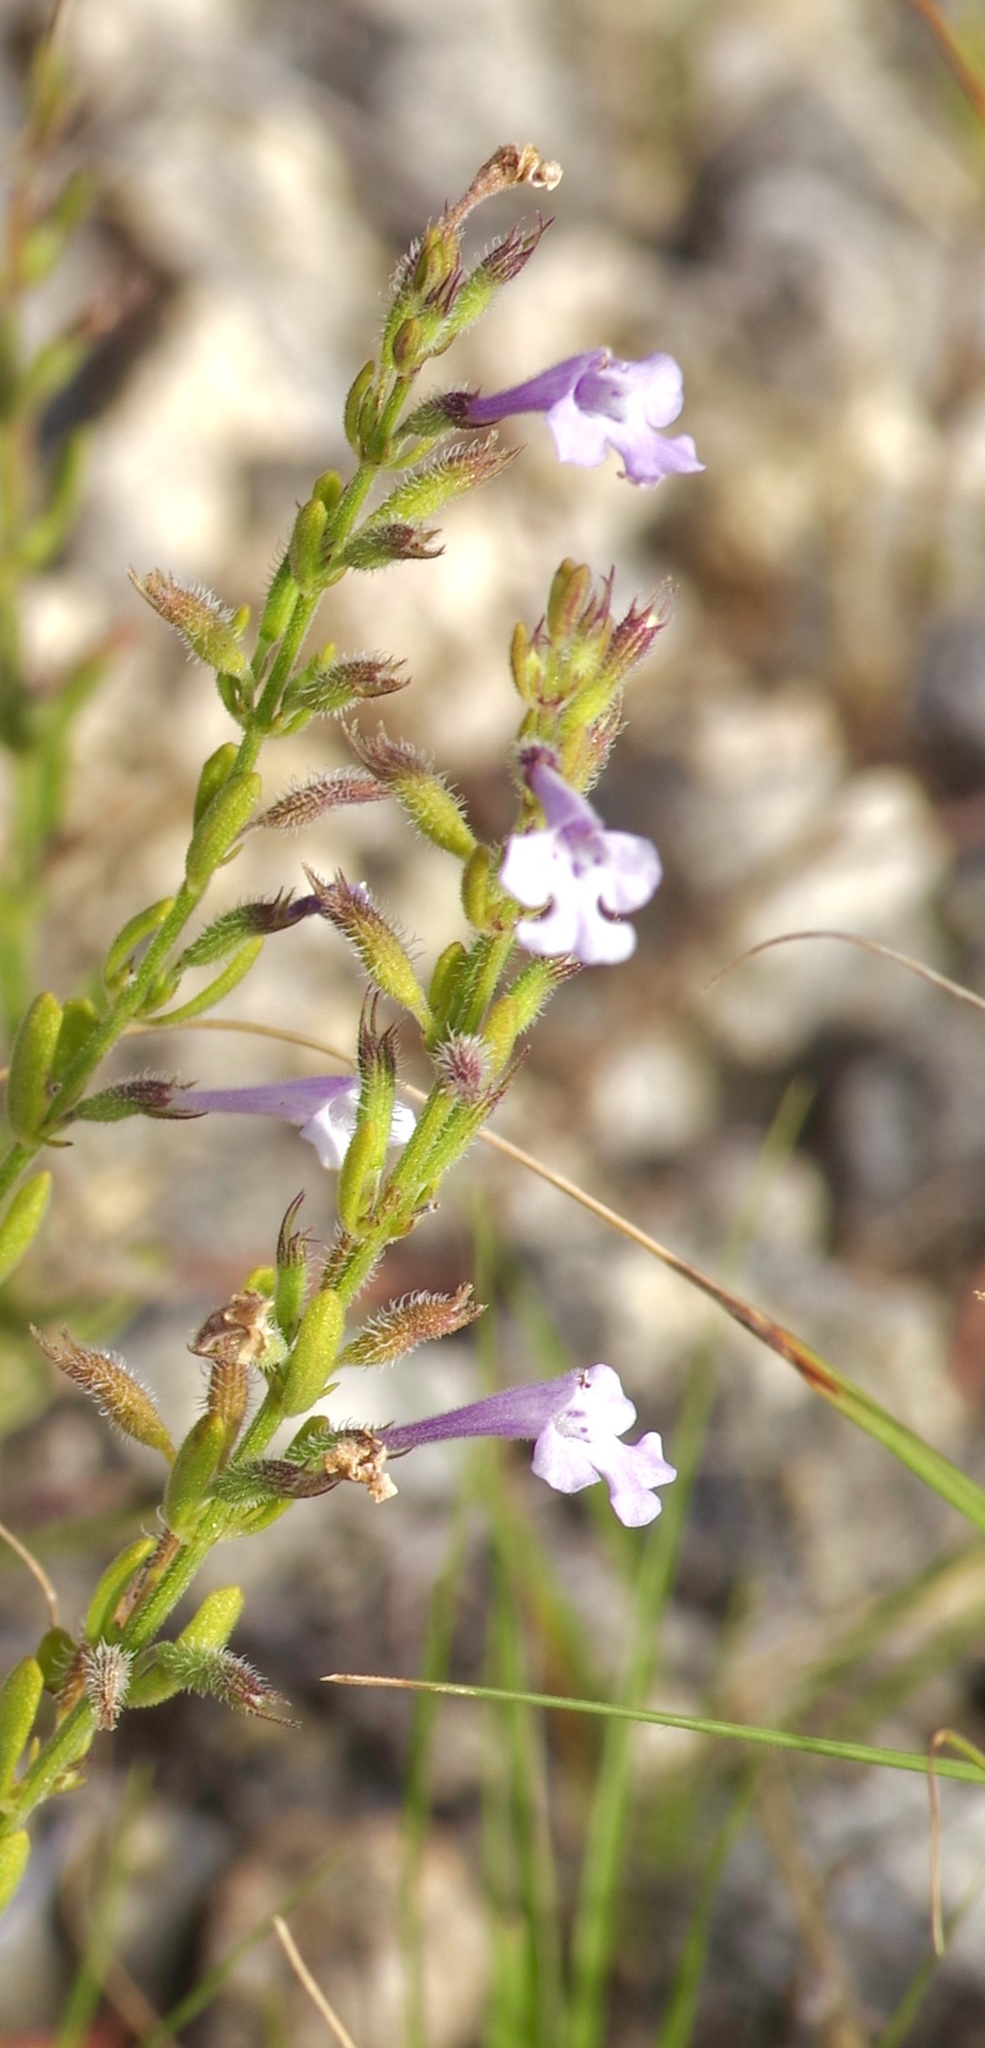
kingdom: Plantae
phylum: Tracheophyta
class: Magnoliopsida
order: Lamiales
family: Lamiaceae
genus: Hedeoma
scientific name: Hedeoma reverchonii
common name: Reverchon's false penny-royal
